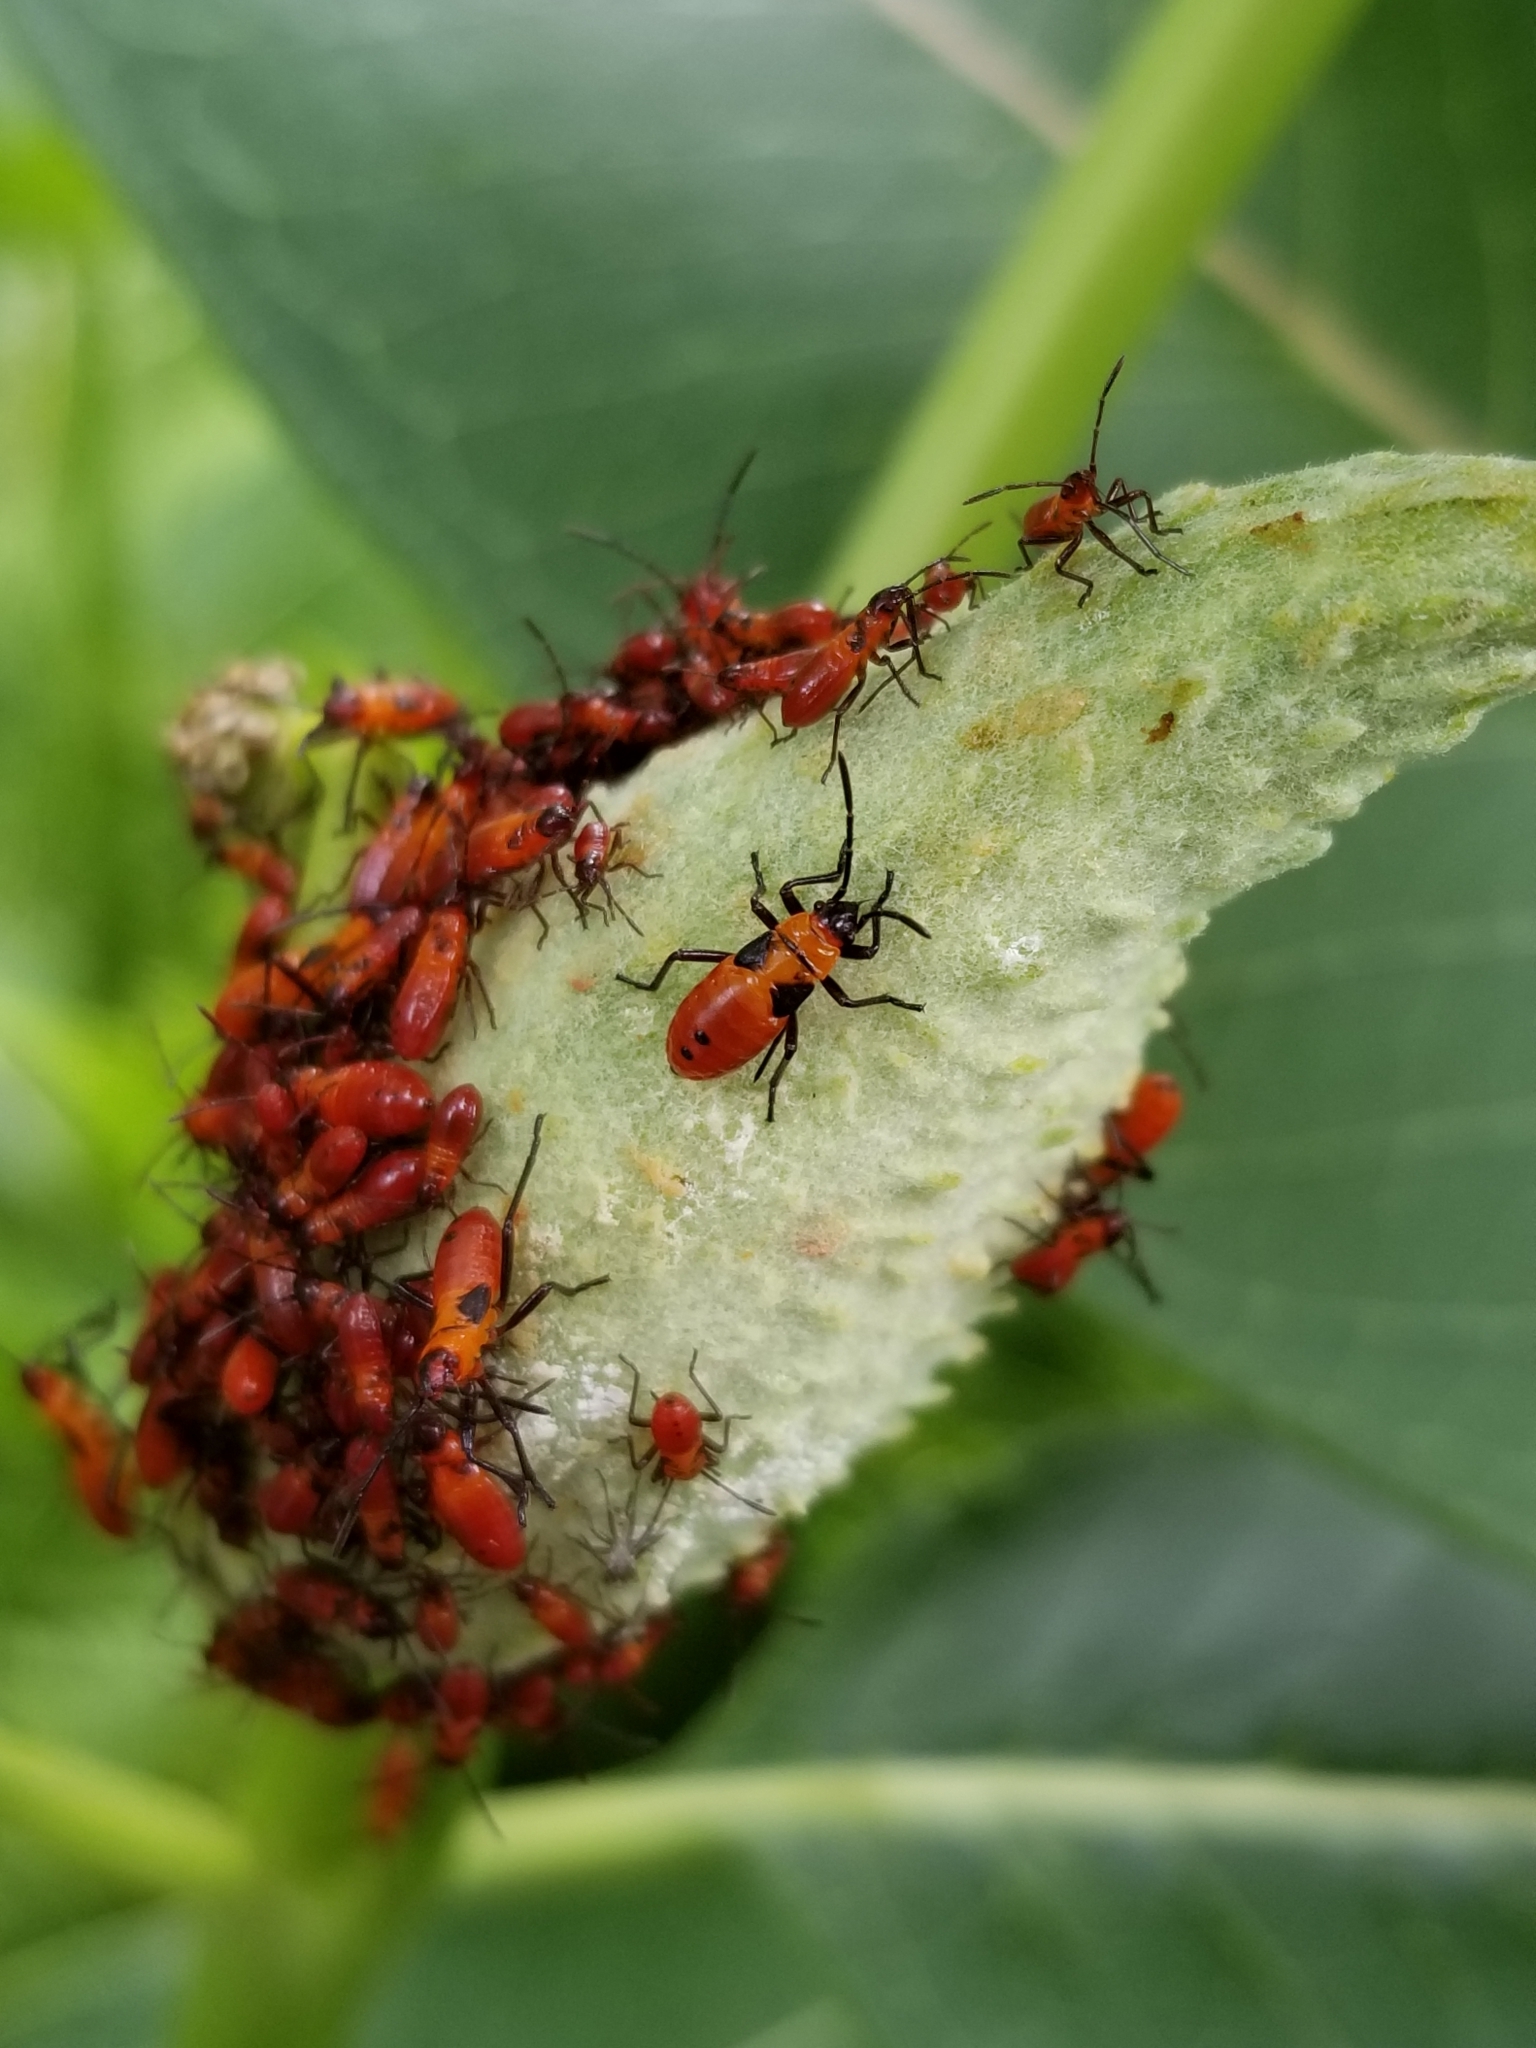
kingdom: Animalia
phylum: Arthropoda
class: Insecta
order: Hemiptera
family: Lygaeidae
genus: Oncopeltus
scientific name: Oncopeltus fasciatus
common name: Large milkweed bug
